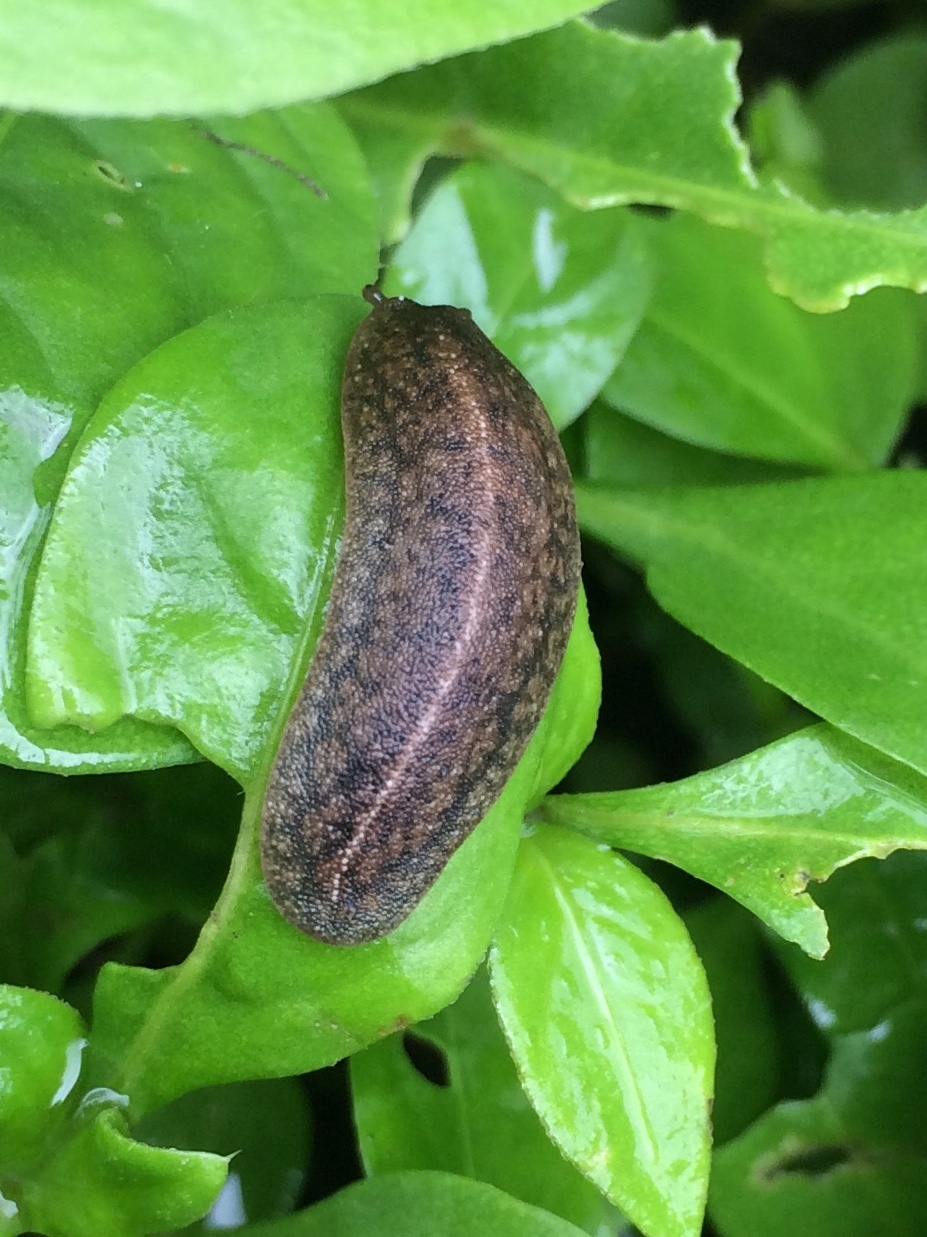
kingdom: Animalia
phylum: Mollusca
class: Gastropoda
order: Systellommatophora
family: Veronicellidae
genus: Laevicaulis
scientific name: Laevicaulis alte
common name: Tropical leatherleaf
